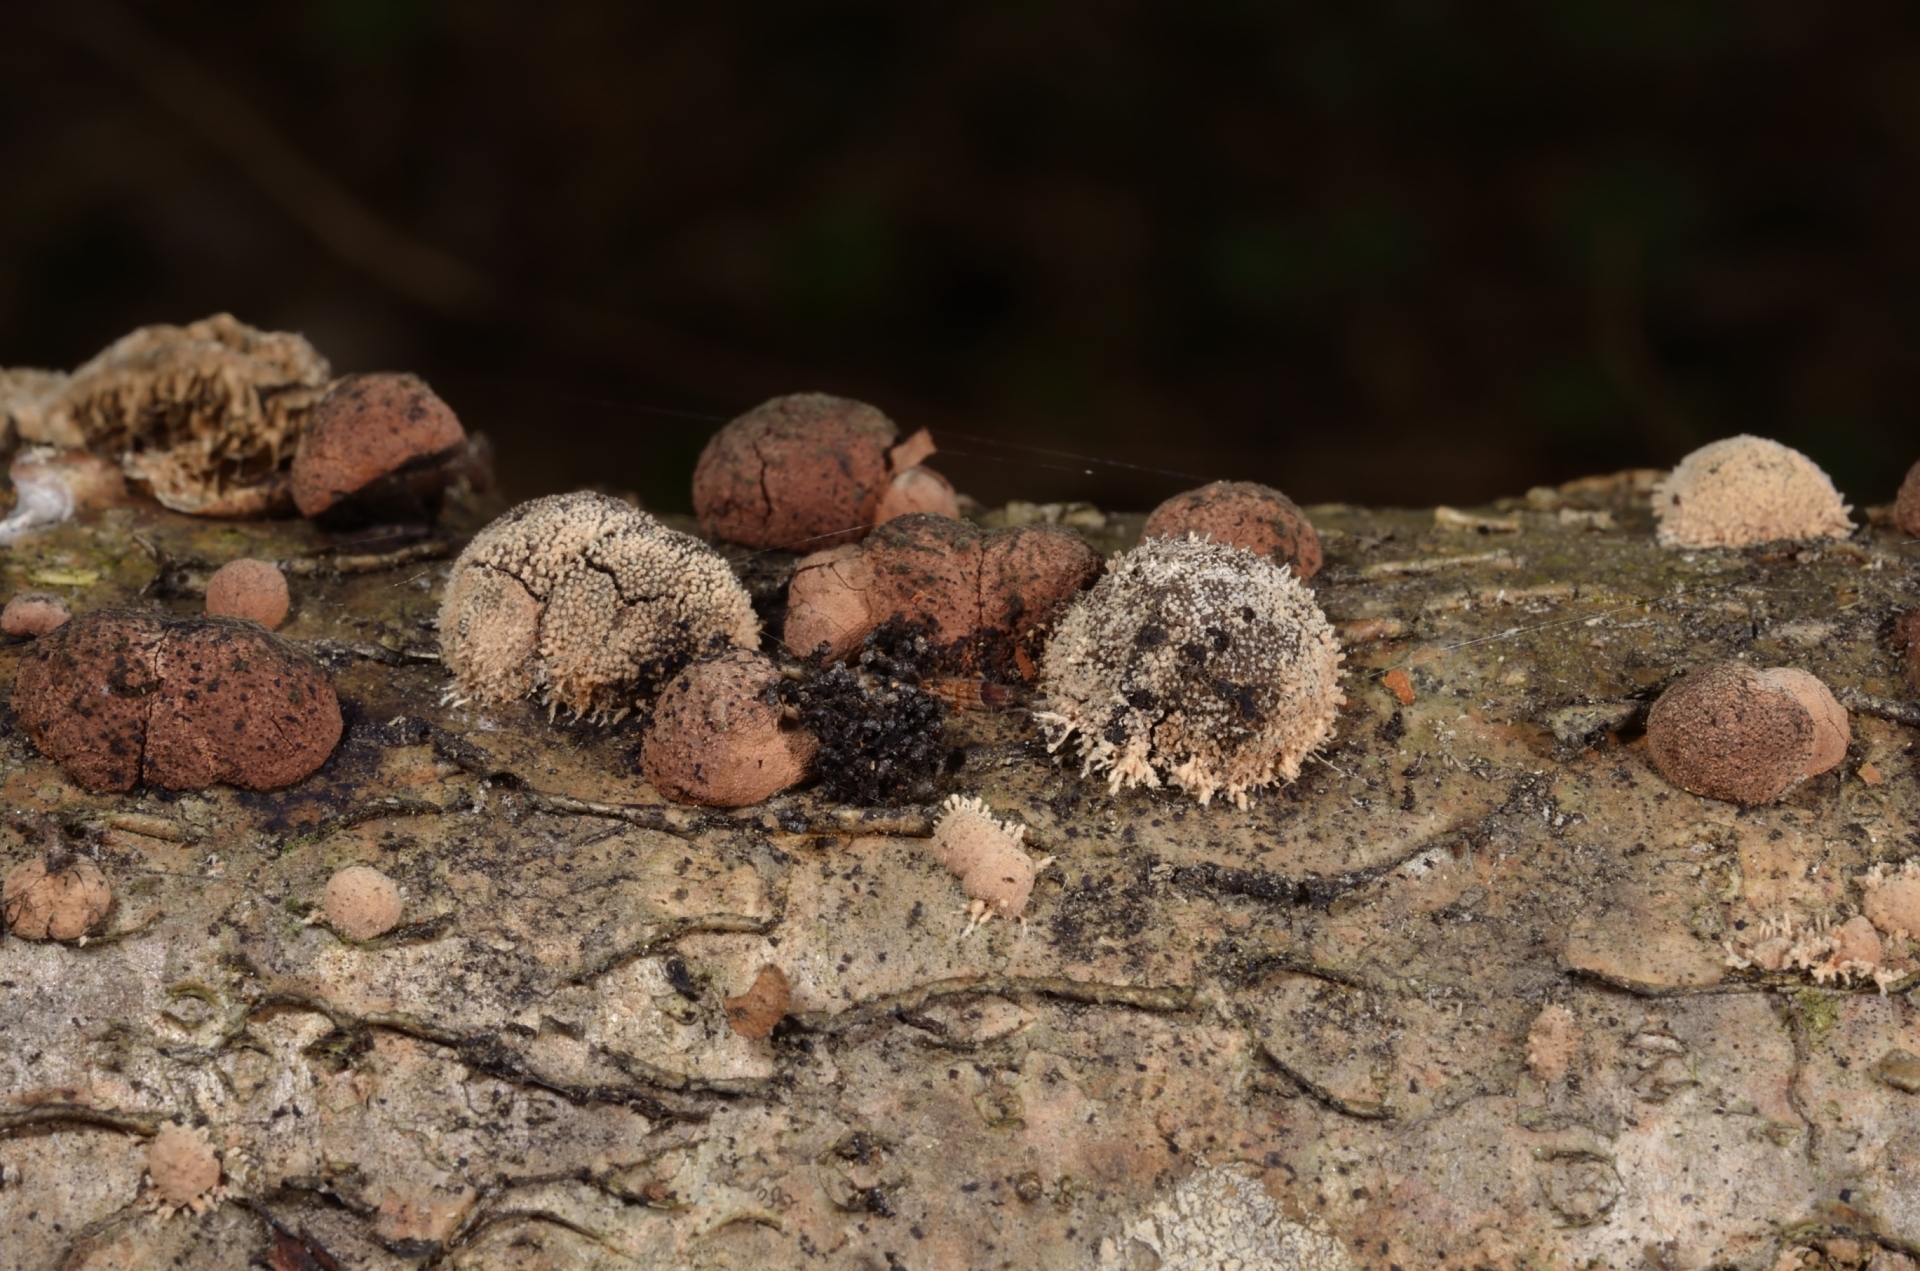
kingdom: Fungi
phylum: Ascomycota
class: Sordariomycetes
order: Xylariales
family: Hypoxylaceae
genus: Hypoxylon
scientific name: Hypoxylon howeanum
